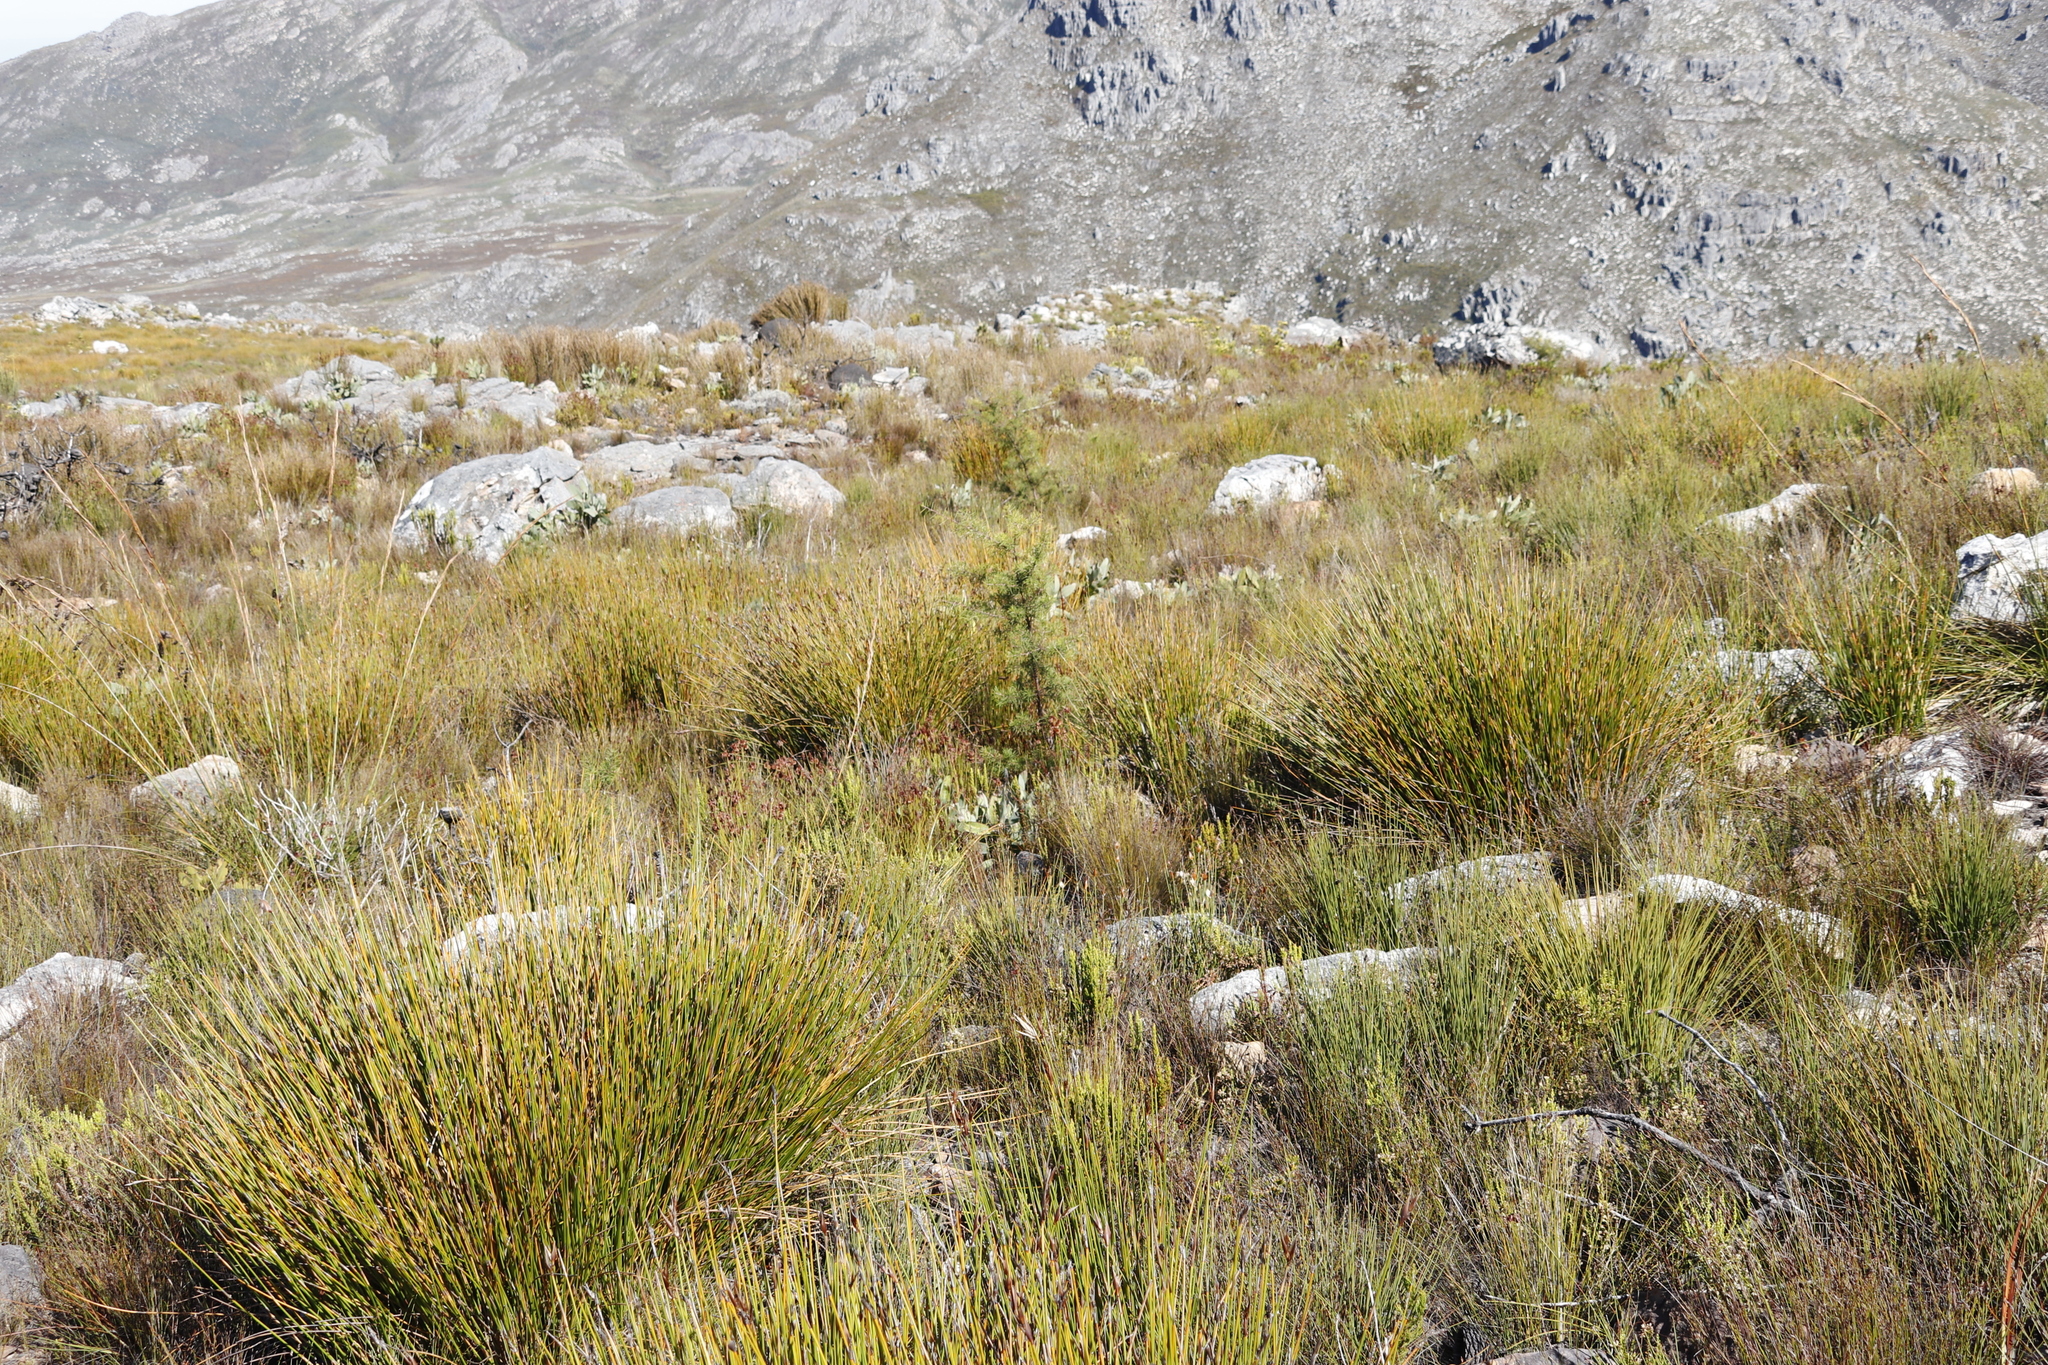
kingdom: Plantae
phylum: Tracheophyta
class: Magnoliopsida
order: Proteales
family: Proteaceae
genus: Hakea
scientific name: Hakea sericea
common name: Needle bush
